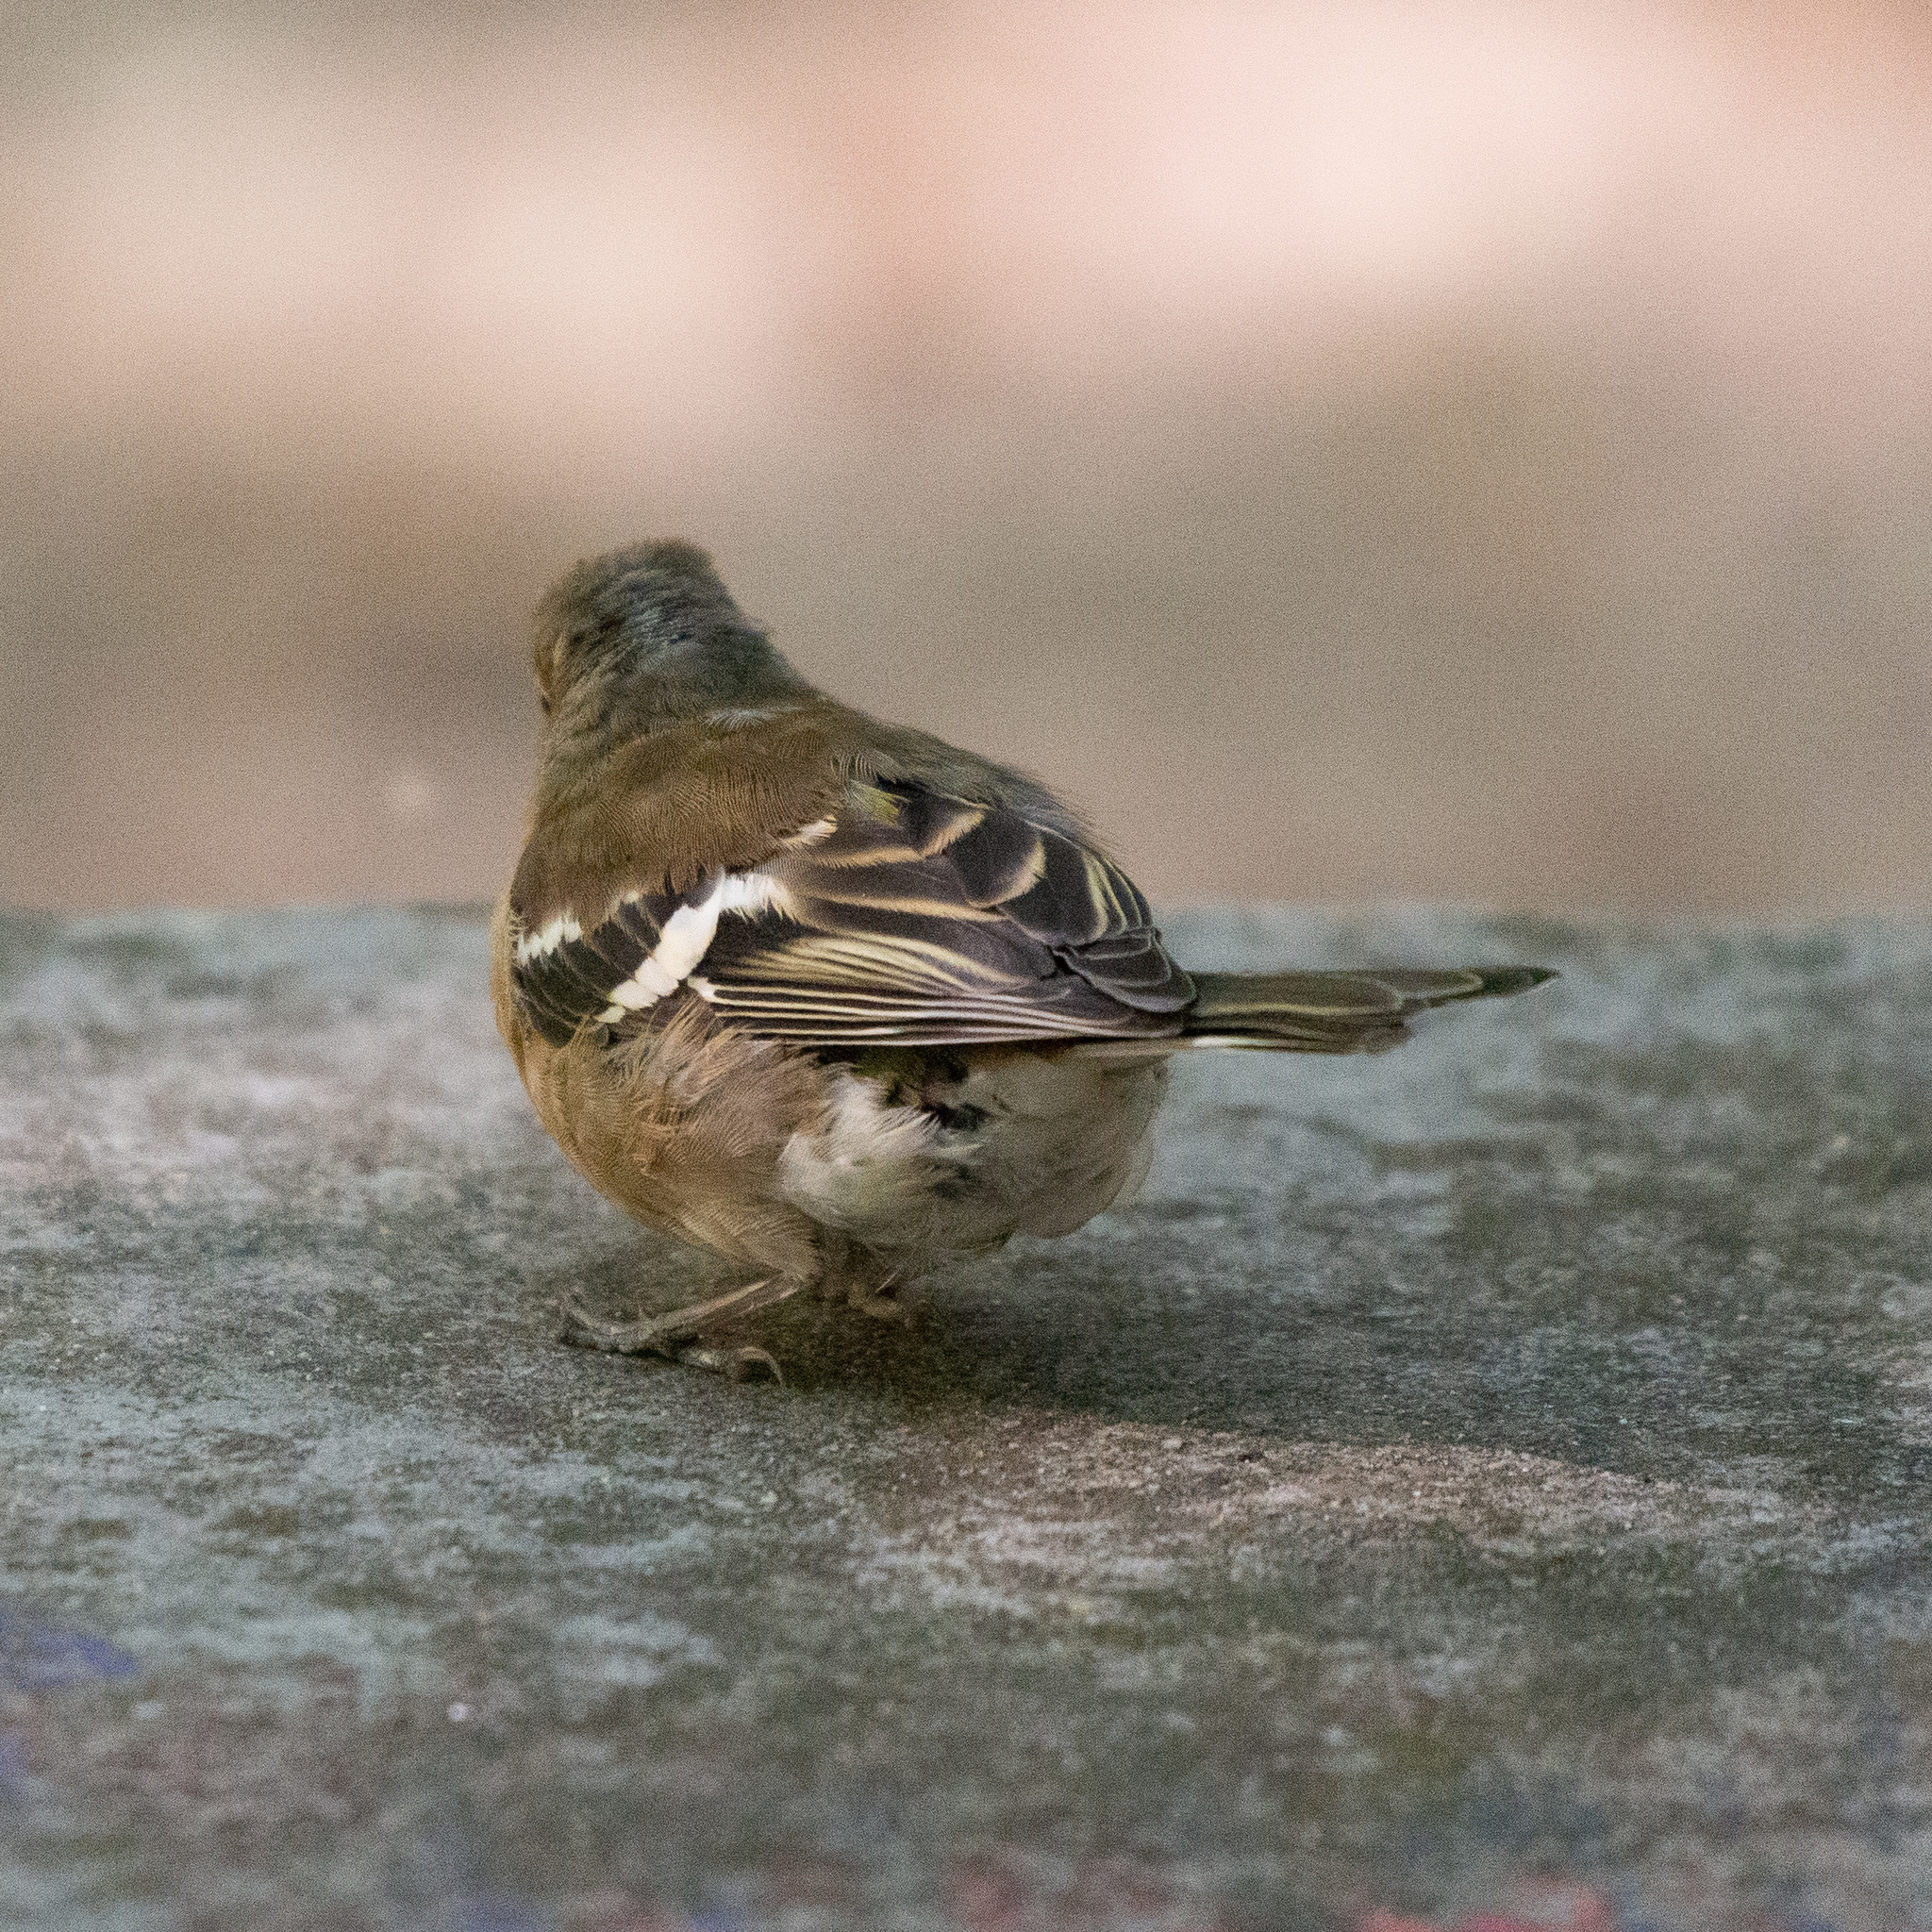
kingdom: Animalia
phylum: Chordata
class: Aves
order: Passeriformes
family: Fringillidae
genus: Fringilla
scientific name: Fringilla coelebs
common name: Common chaffinch
